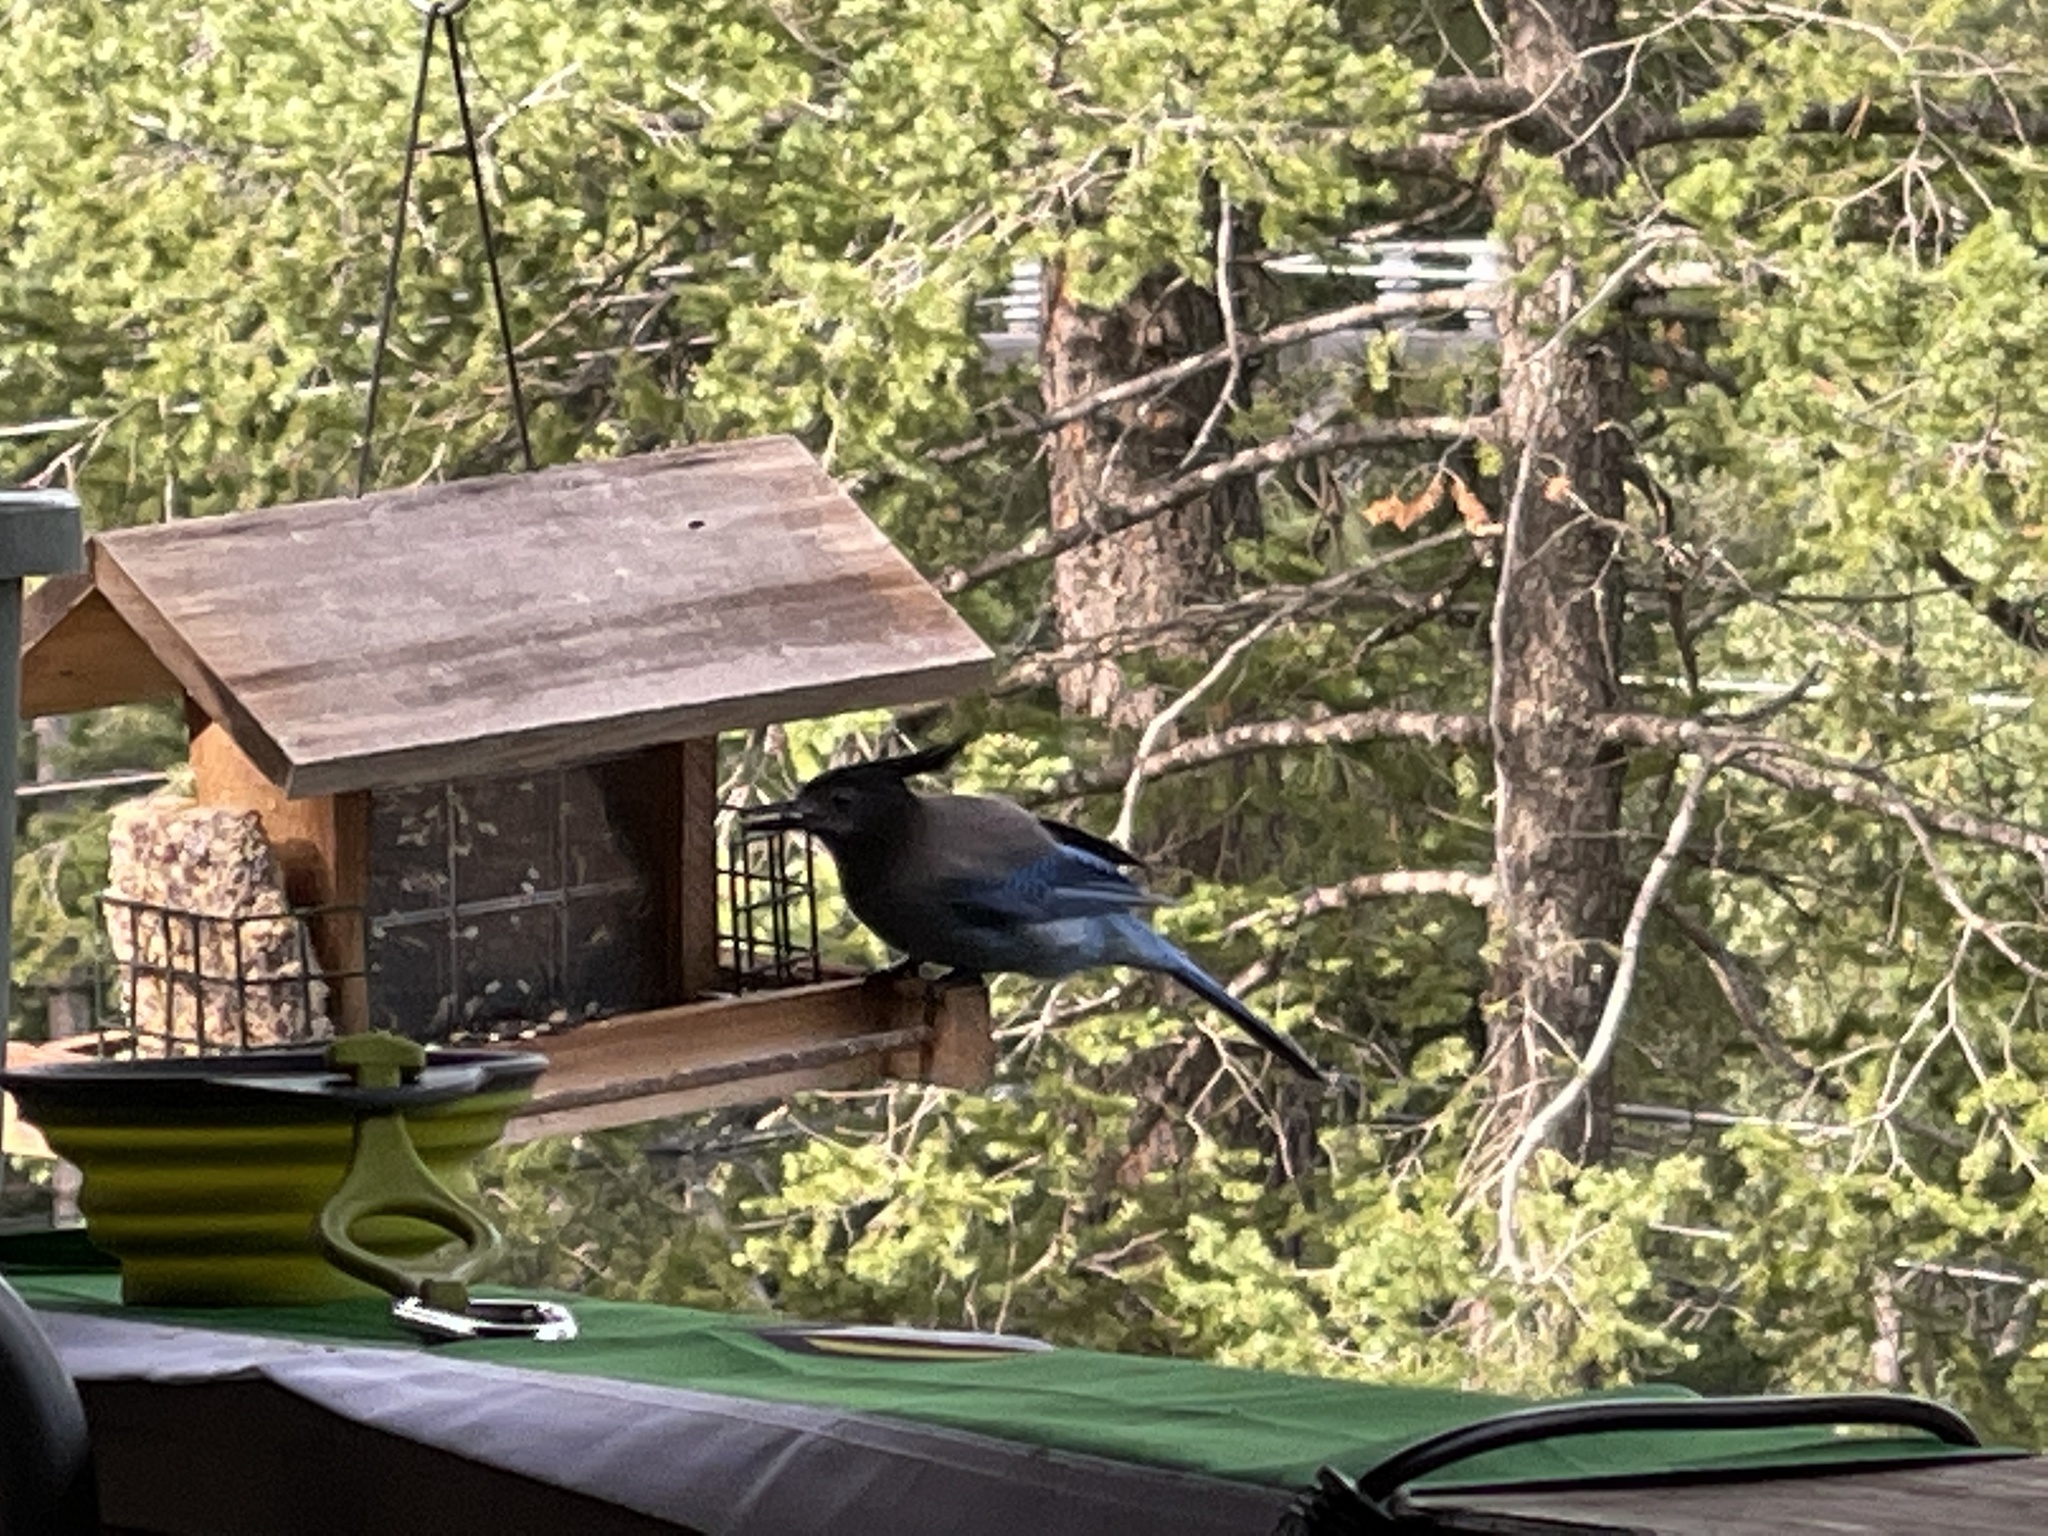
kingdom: Animalia
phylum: Chordata
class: Aves
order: Passeriformes
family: Corvidae
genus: Cyanocitta
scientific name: Cyanocitta stelleri
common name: Steller's jay
